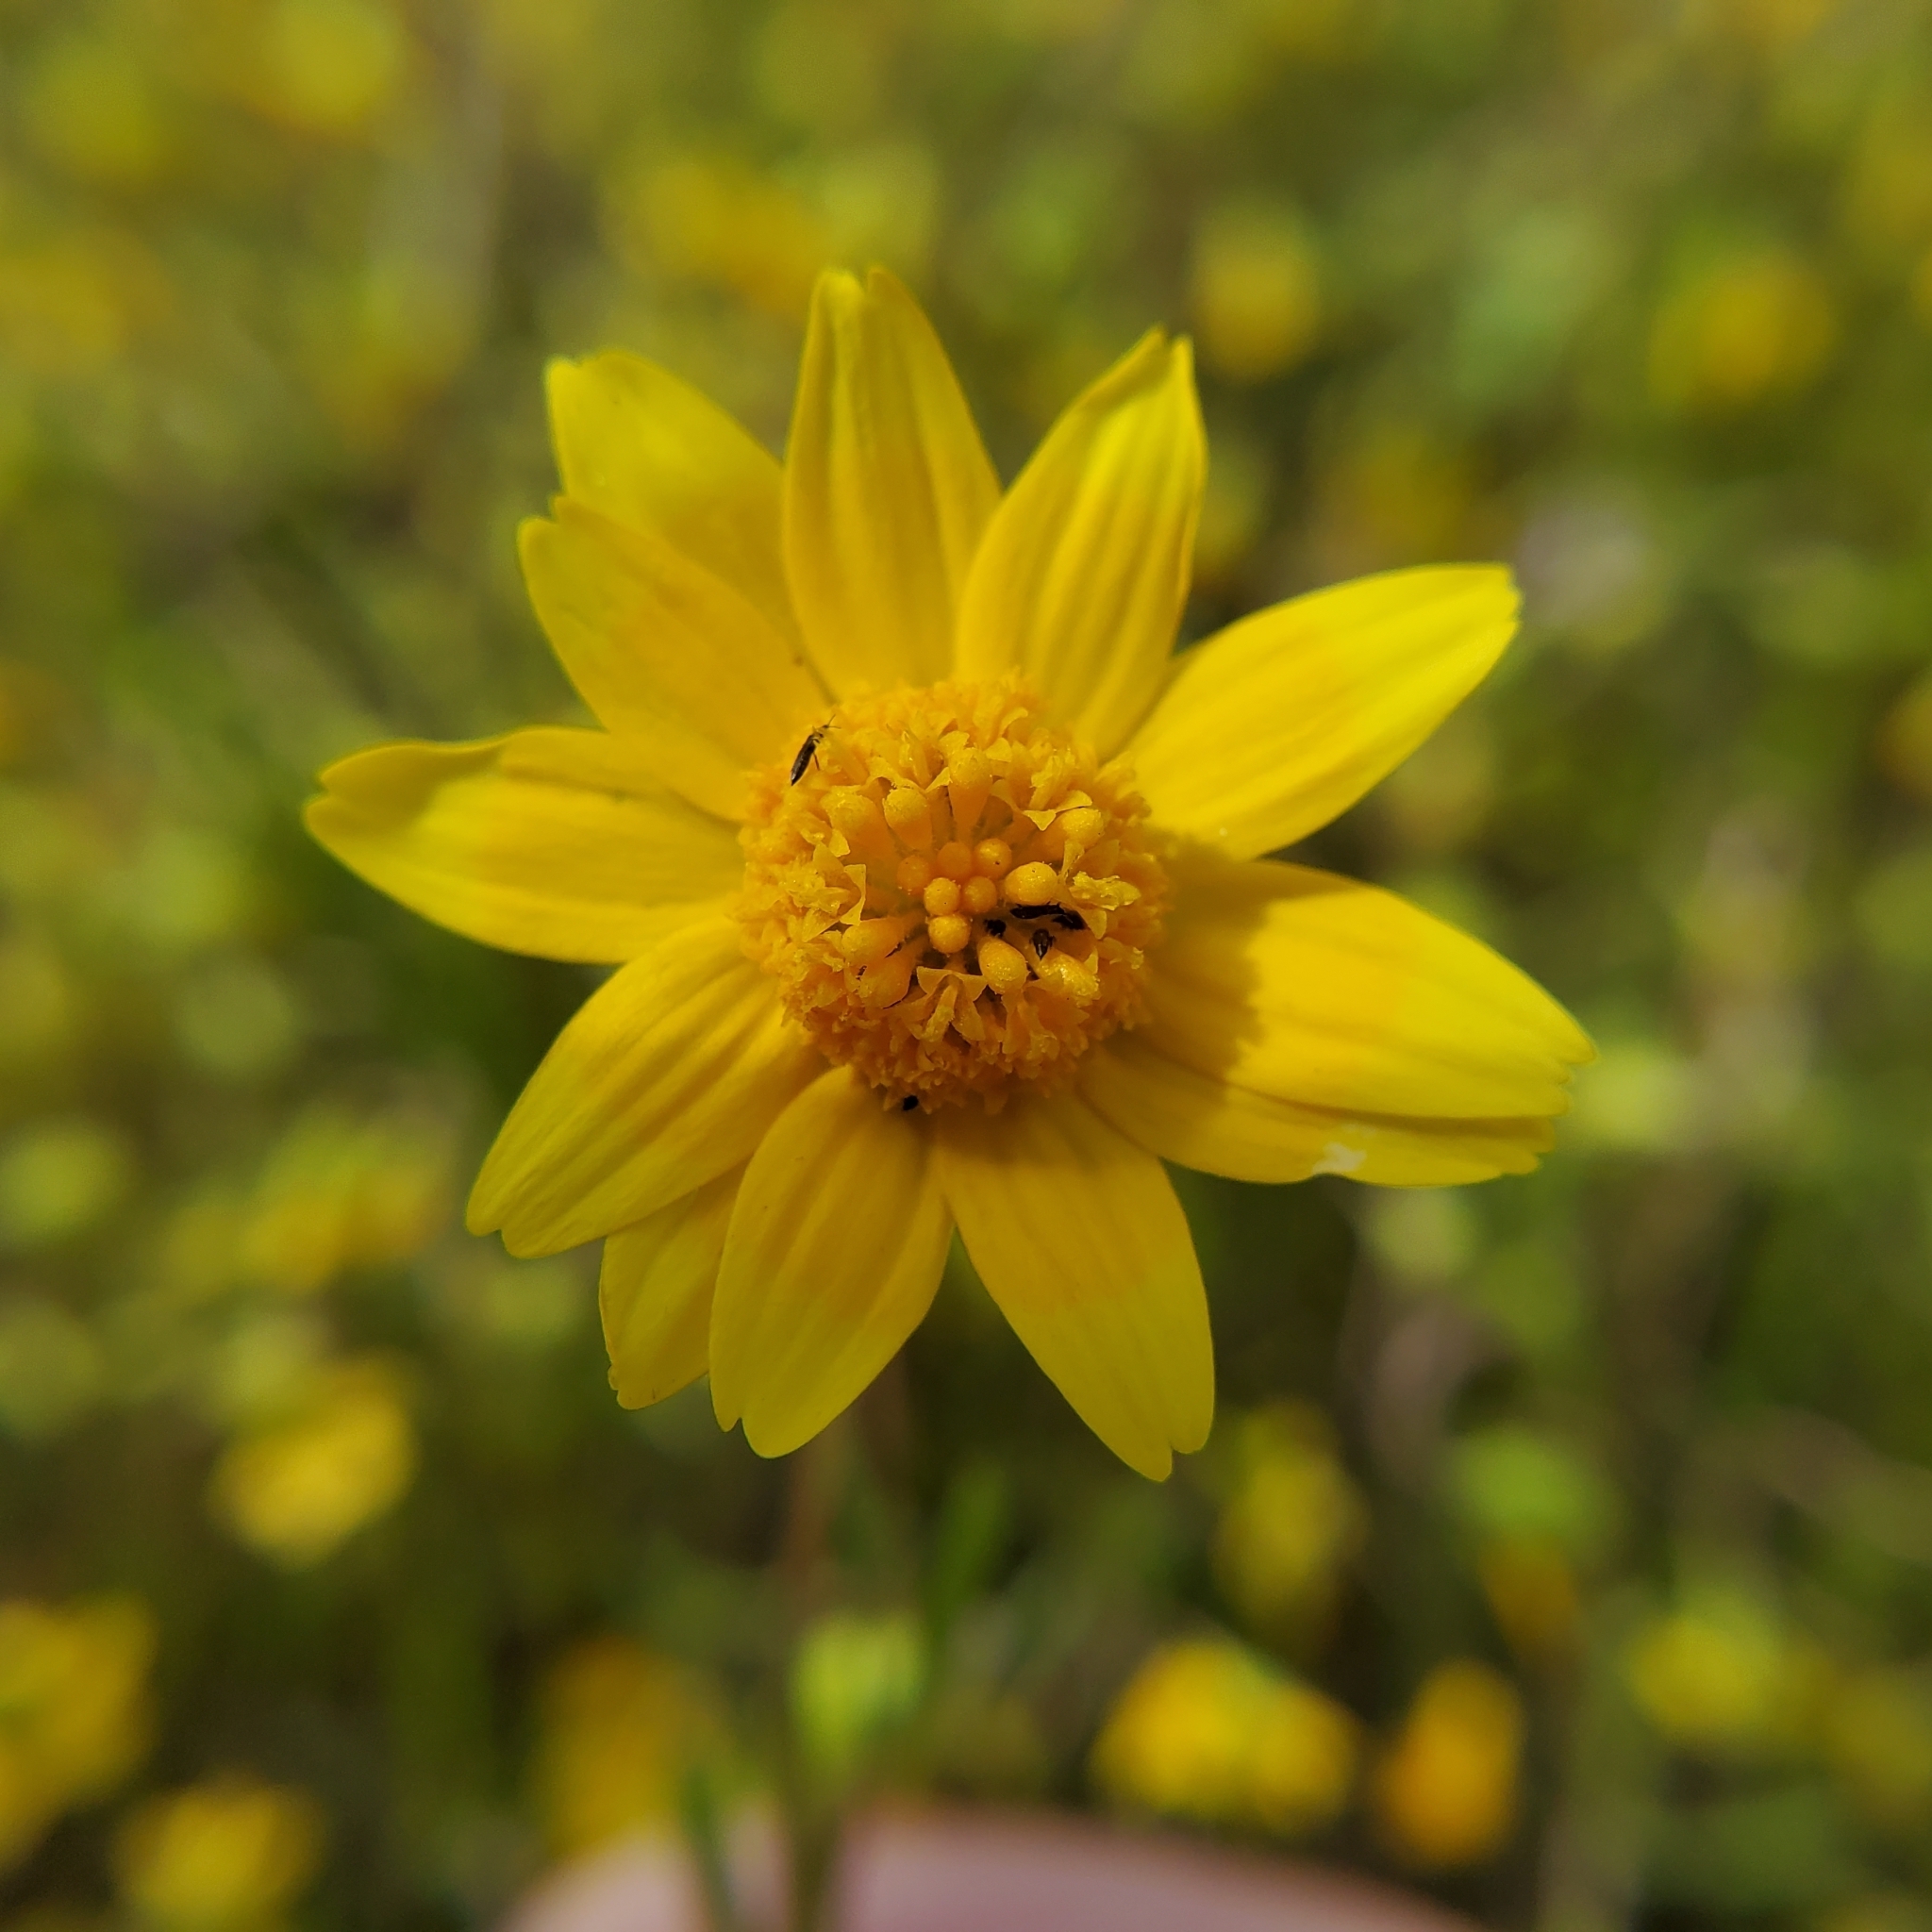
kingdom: Plantae
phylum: Tracheophyta
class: Magnoliopsida
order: Asterales
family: Asteraceae
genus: Lasthenia
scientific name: Lasthenia gracilis
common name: Common goldfields
